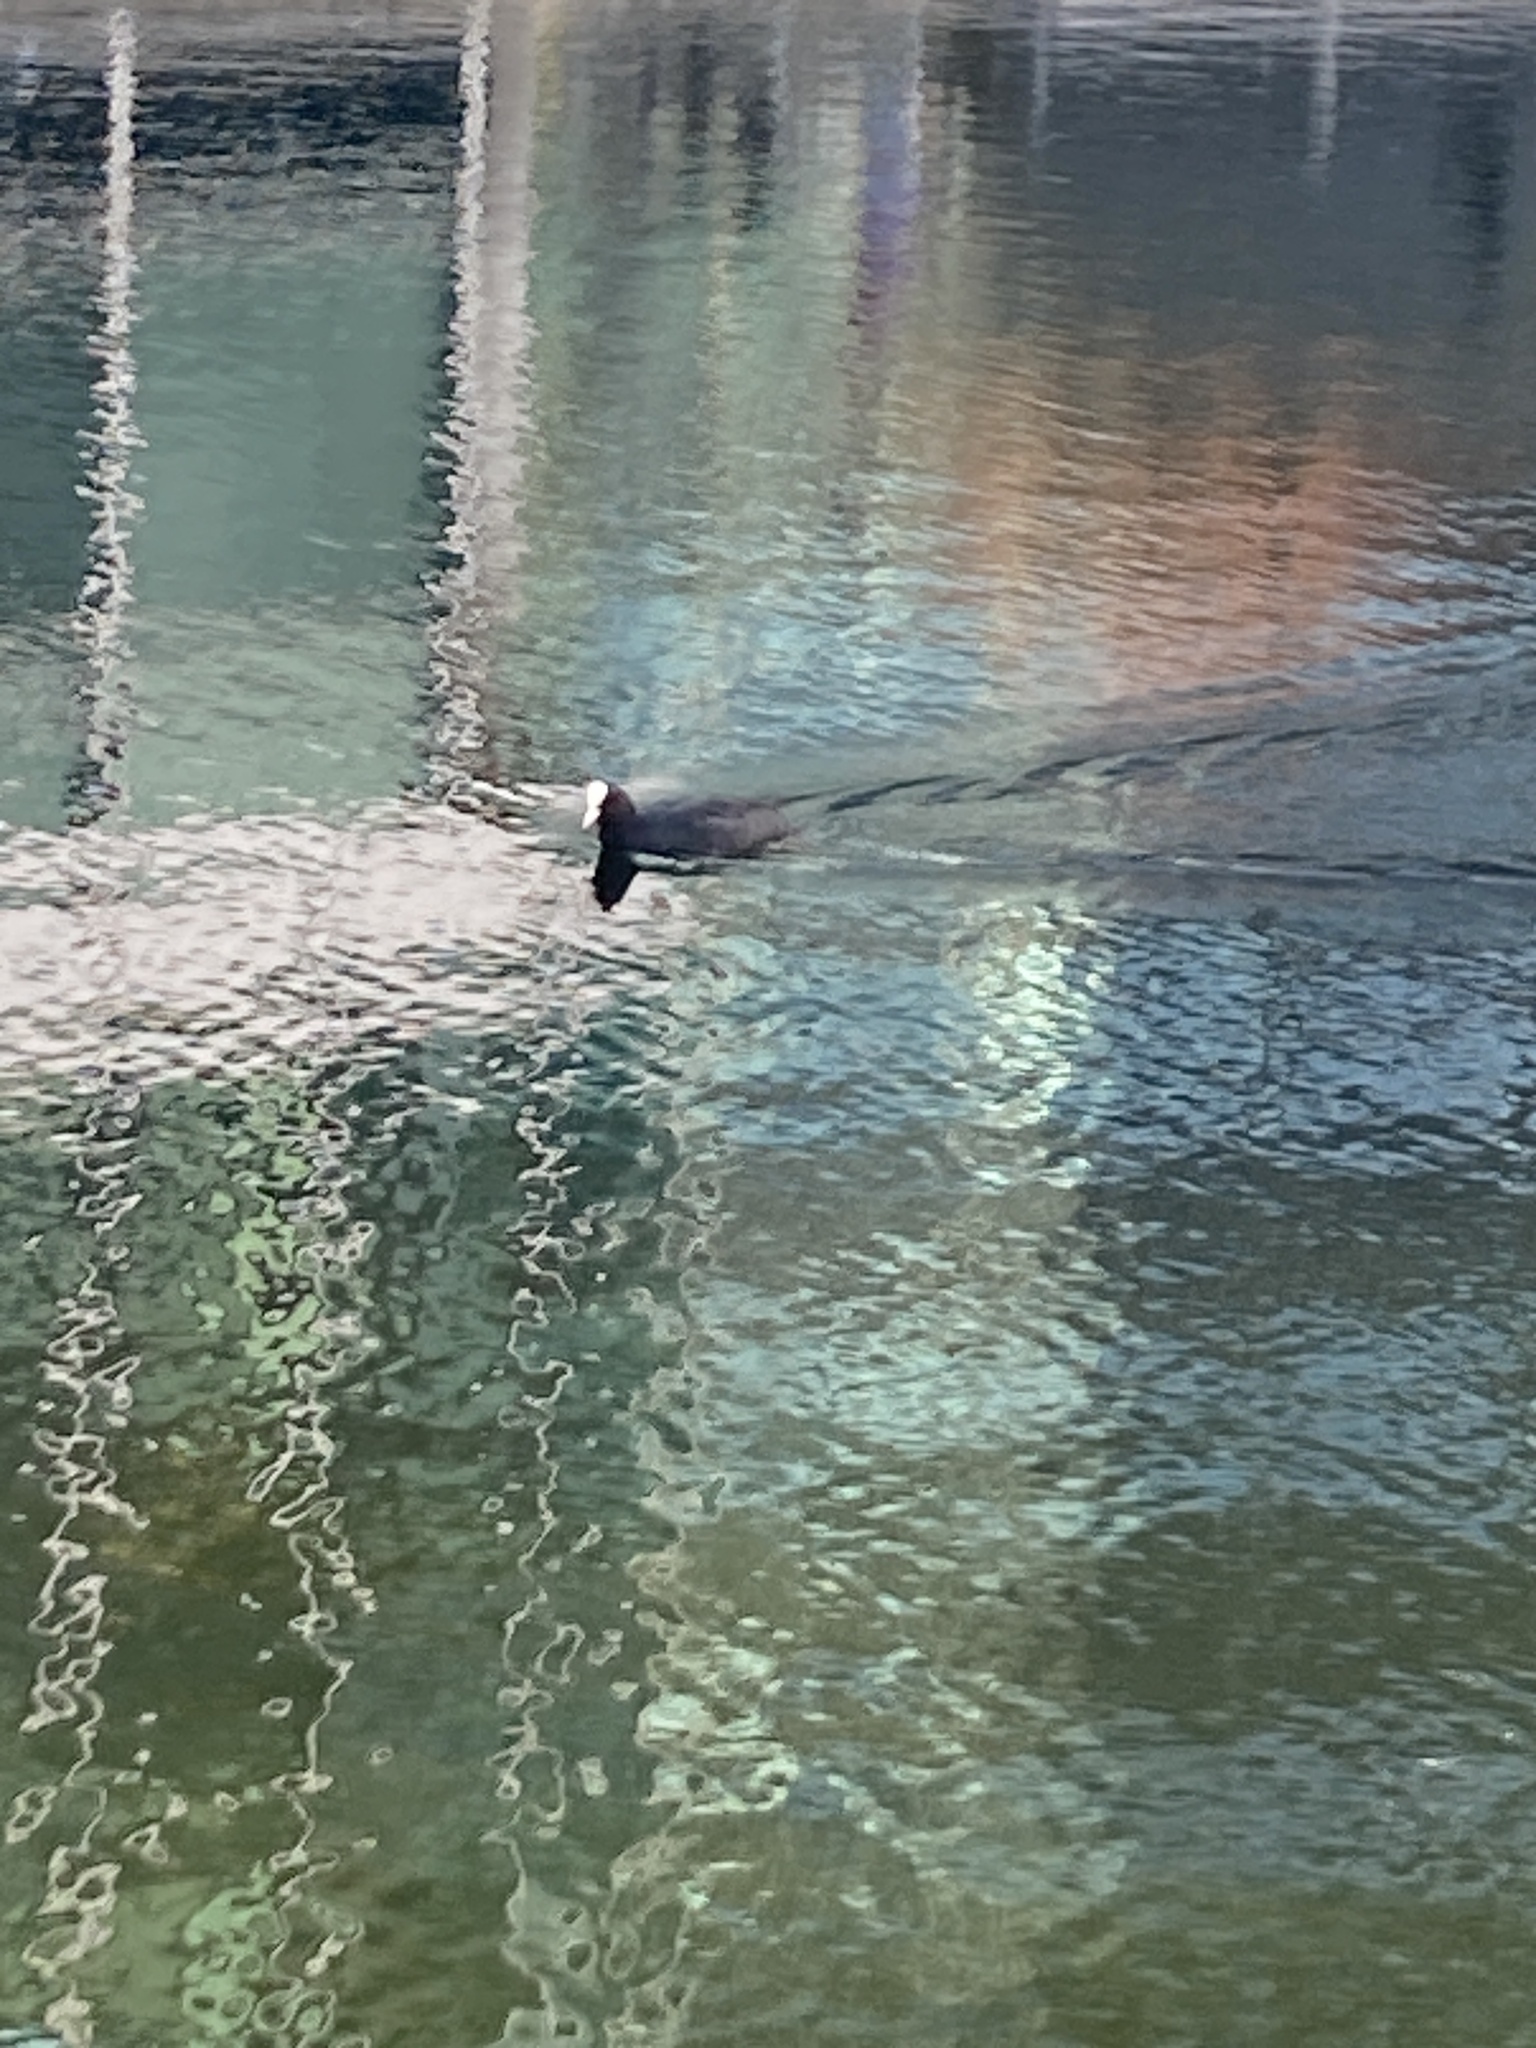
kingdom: Animalia
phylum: Chordata
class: Aves
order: Gruiformes
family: Rallidae
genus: Fulica
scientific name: Fulica atra
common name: Eurasian coot
